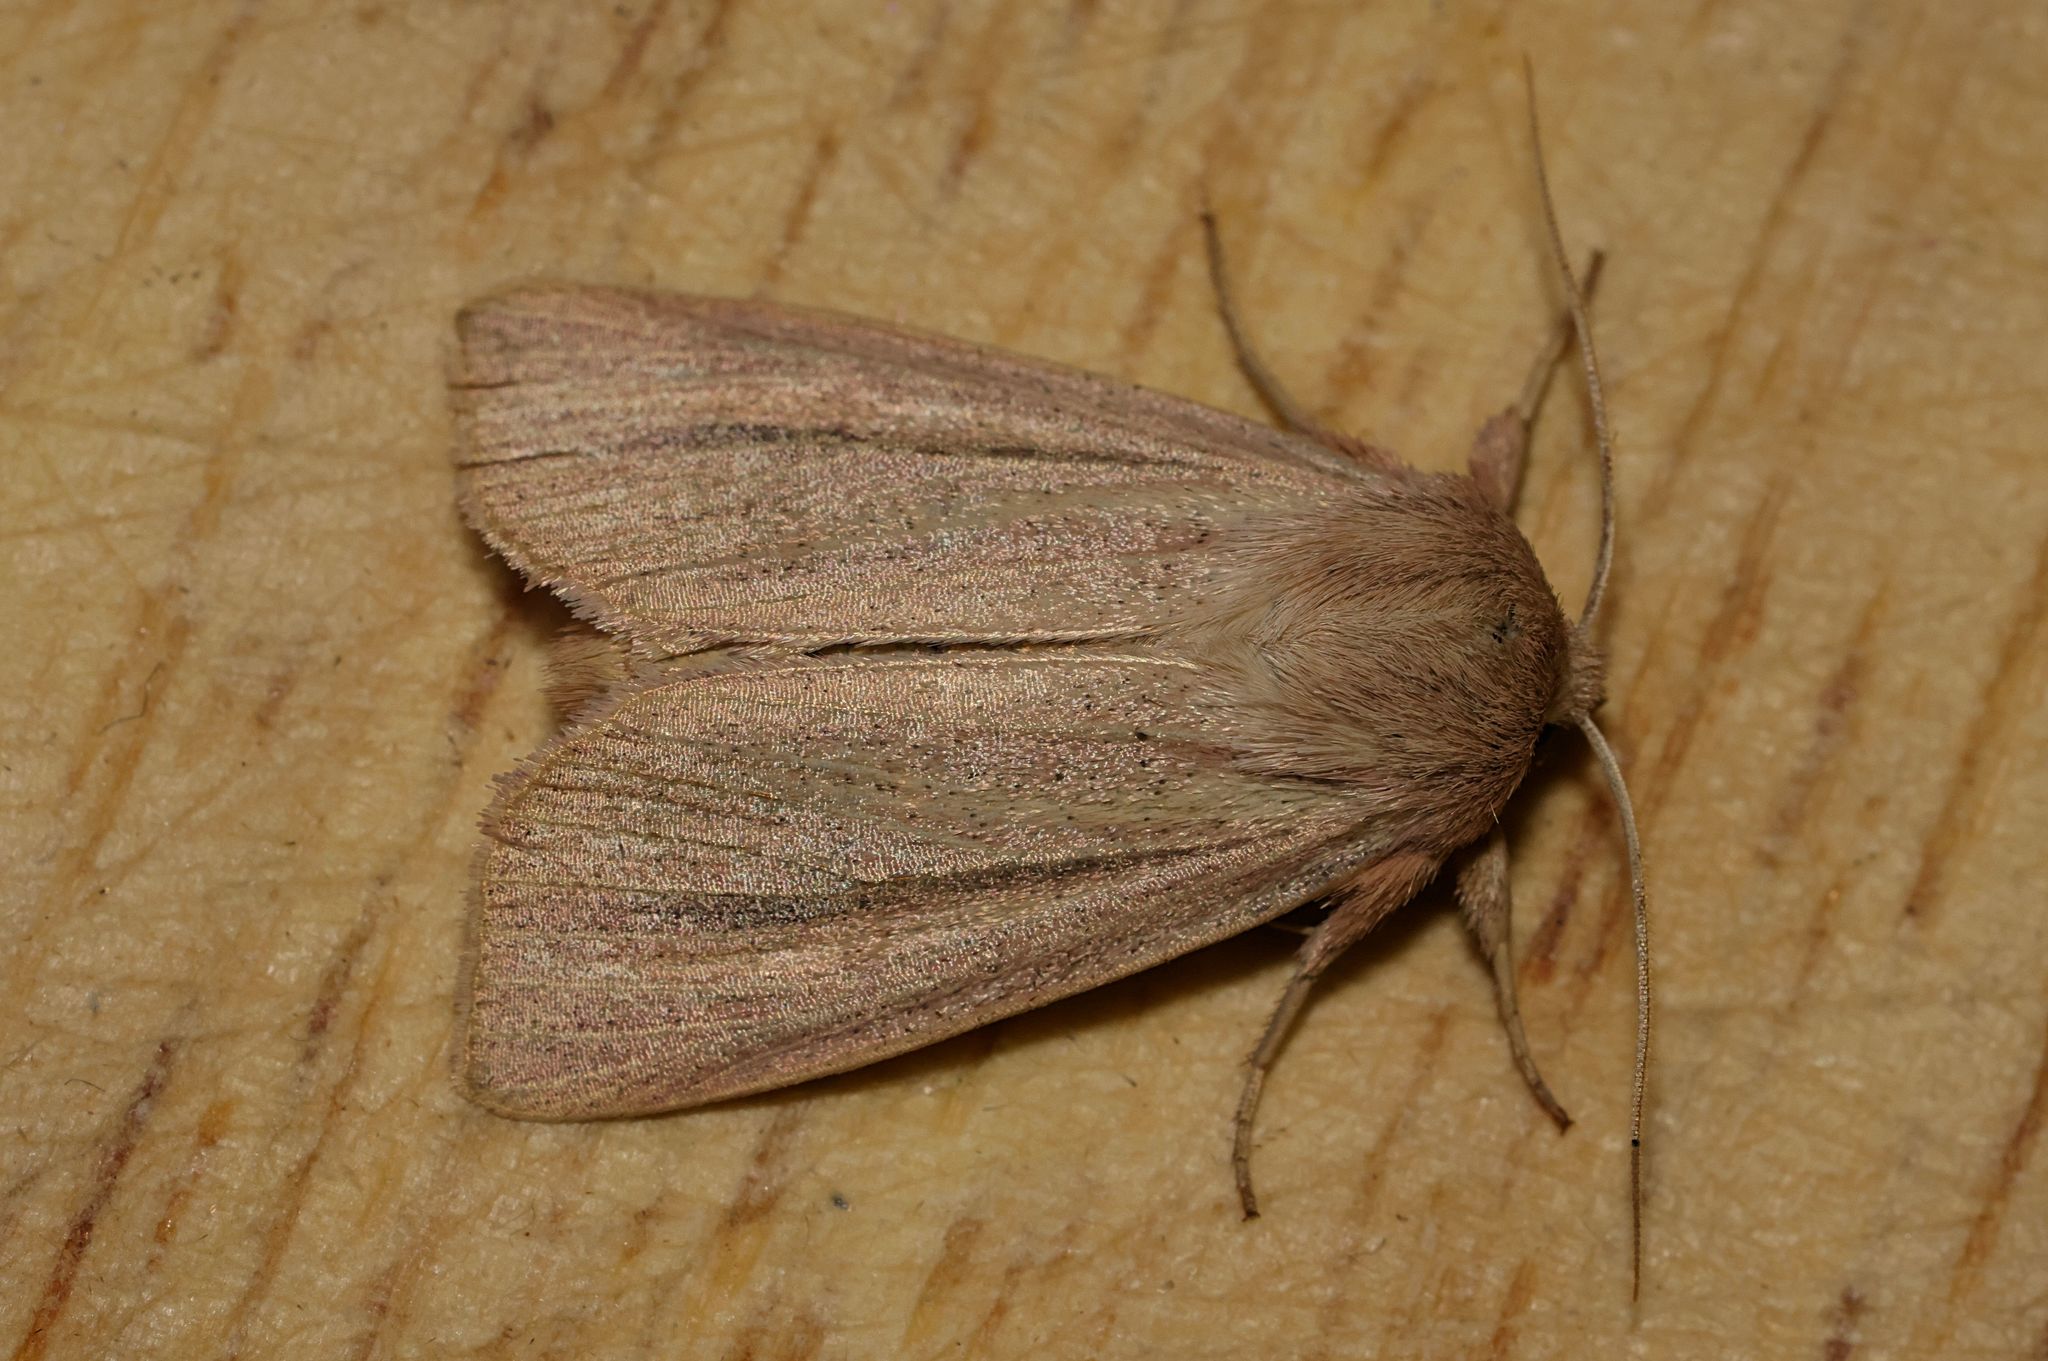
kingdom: Animalia
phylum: Arthropoda
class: Insecta
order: Lepidoptera
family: Noctuidae
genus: Mythimna
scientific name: Mythimna pallens
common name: Common wainscot
